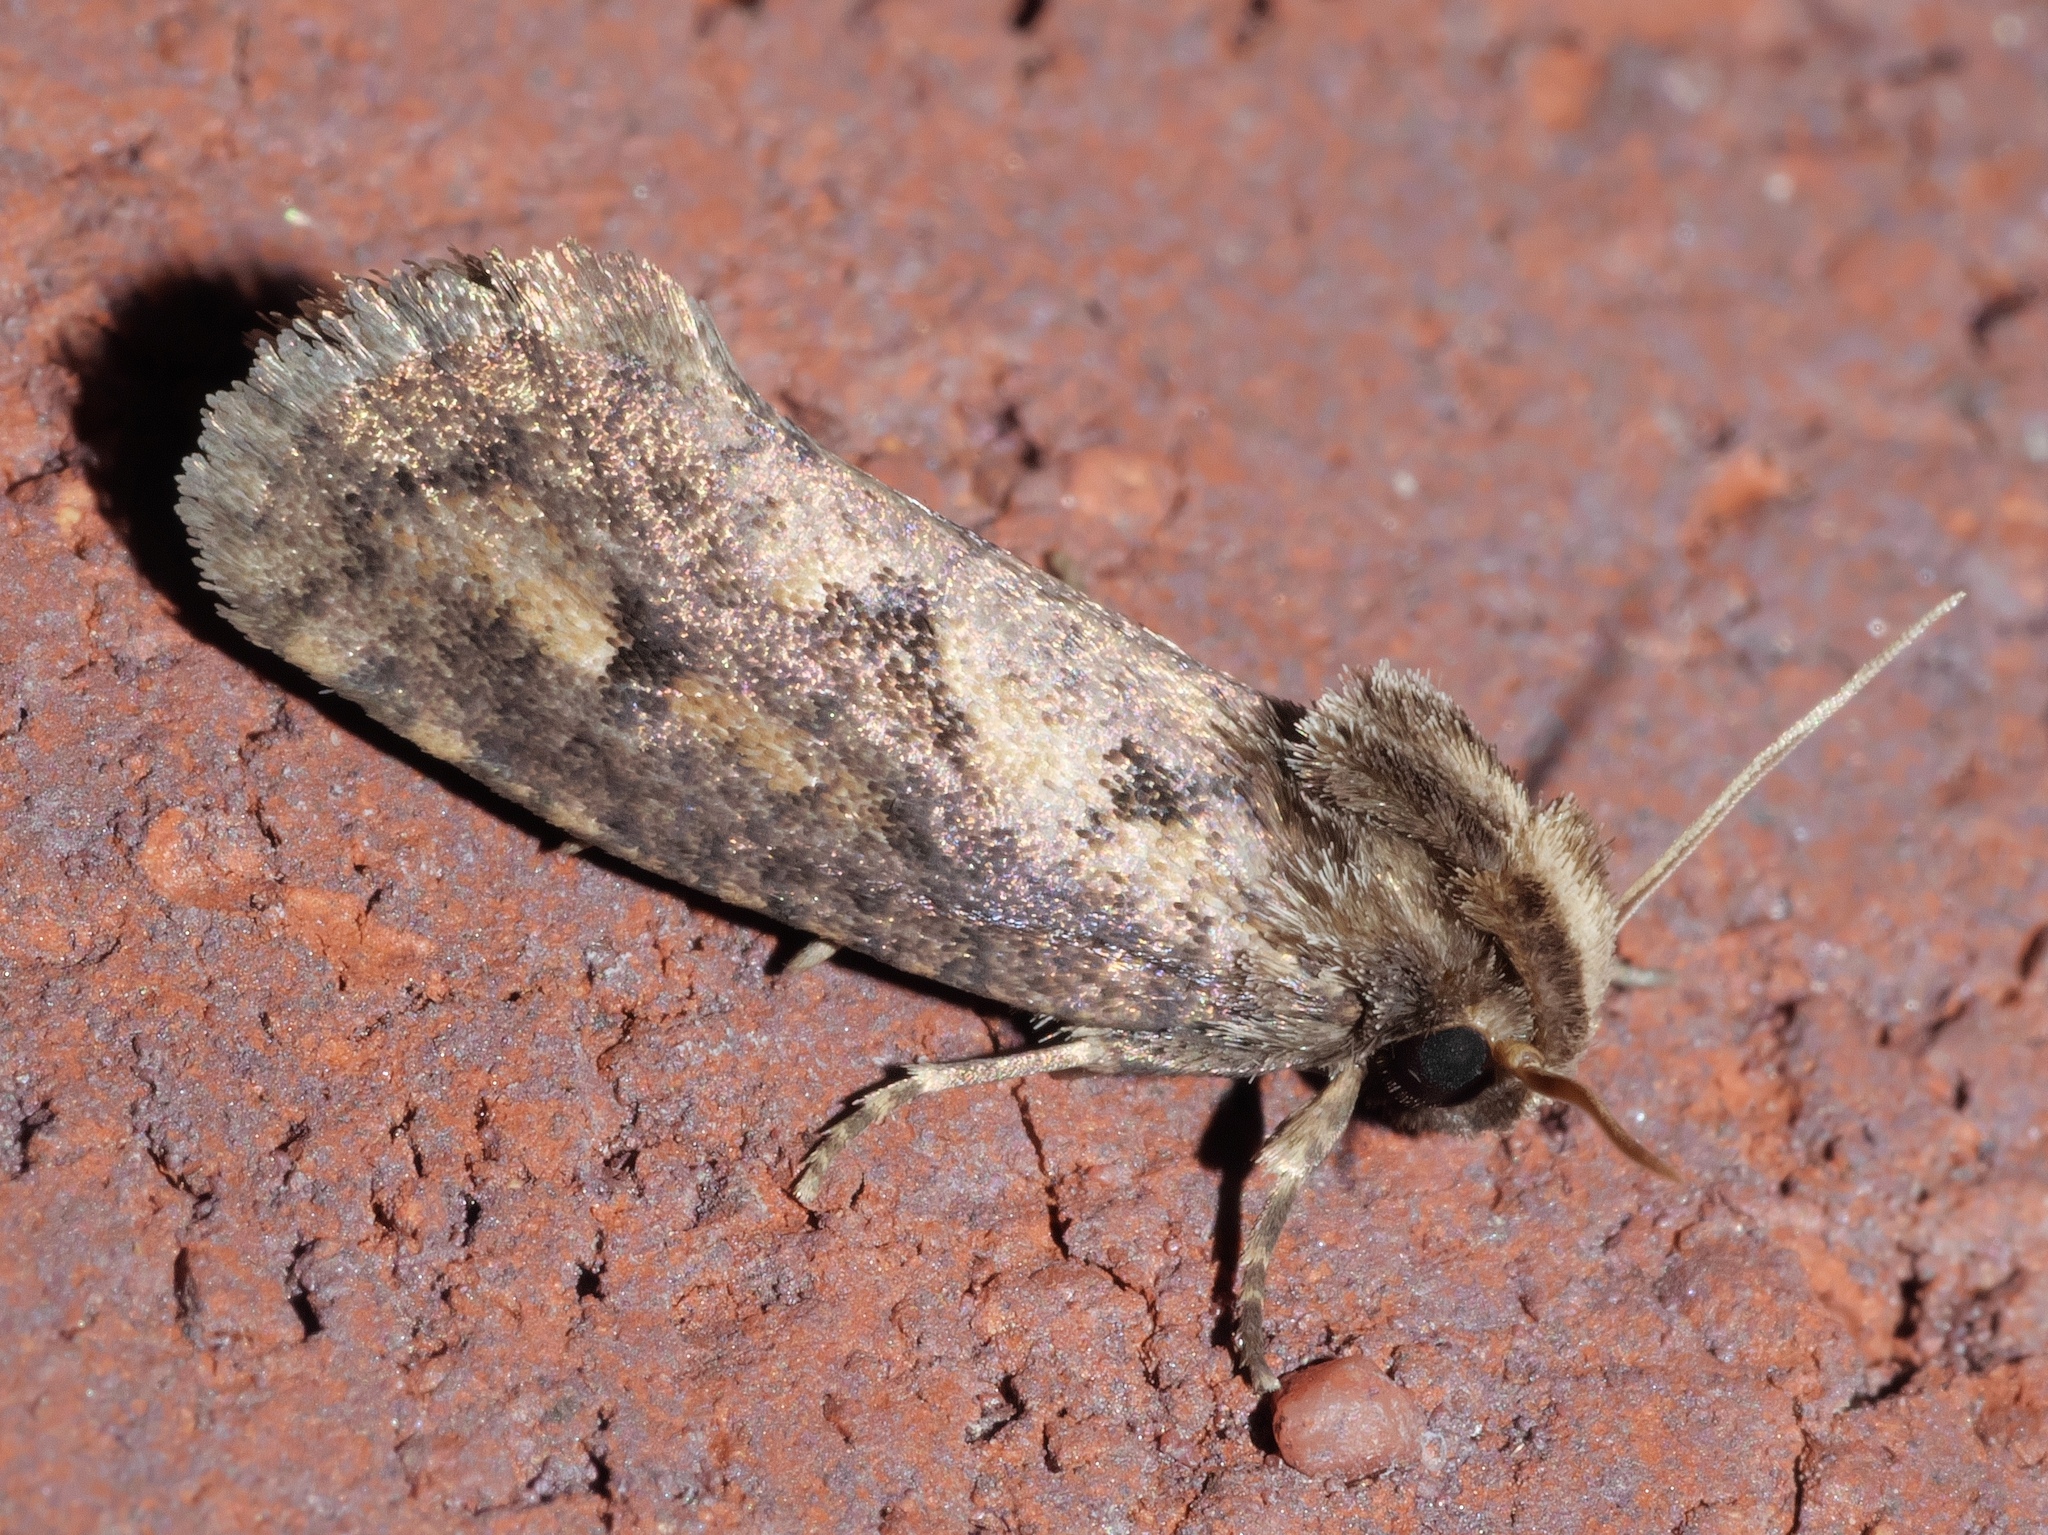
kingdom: Animalia
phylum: Arthropoda
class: Insecta
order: Lepidoptera
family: Tineidae
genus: Acrolophus
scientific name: Acrolophus popeanella
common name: Clemens' grass tubeworm moth
